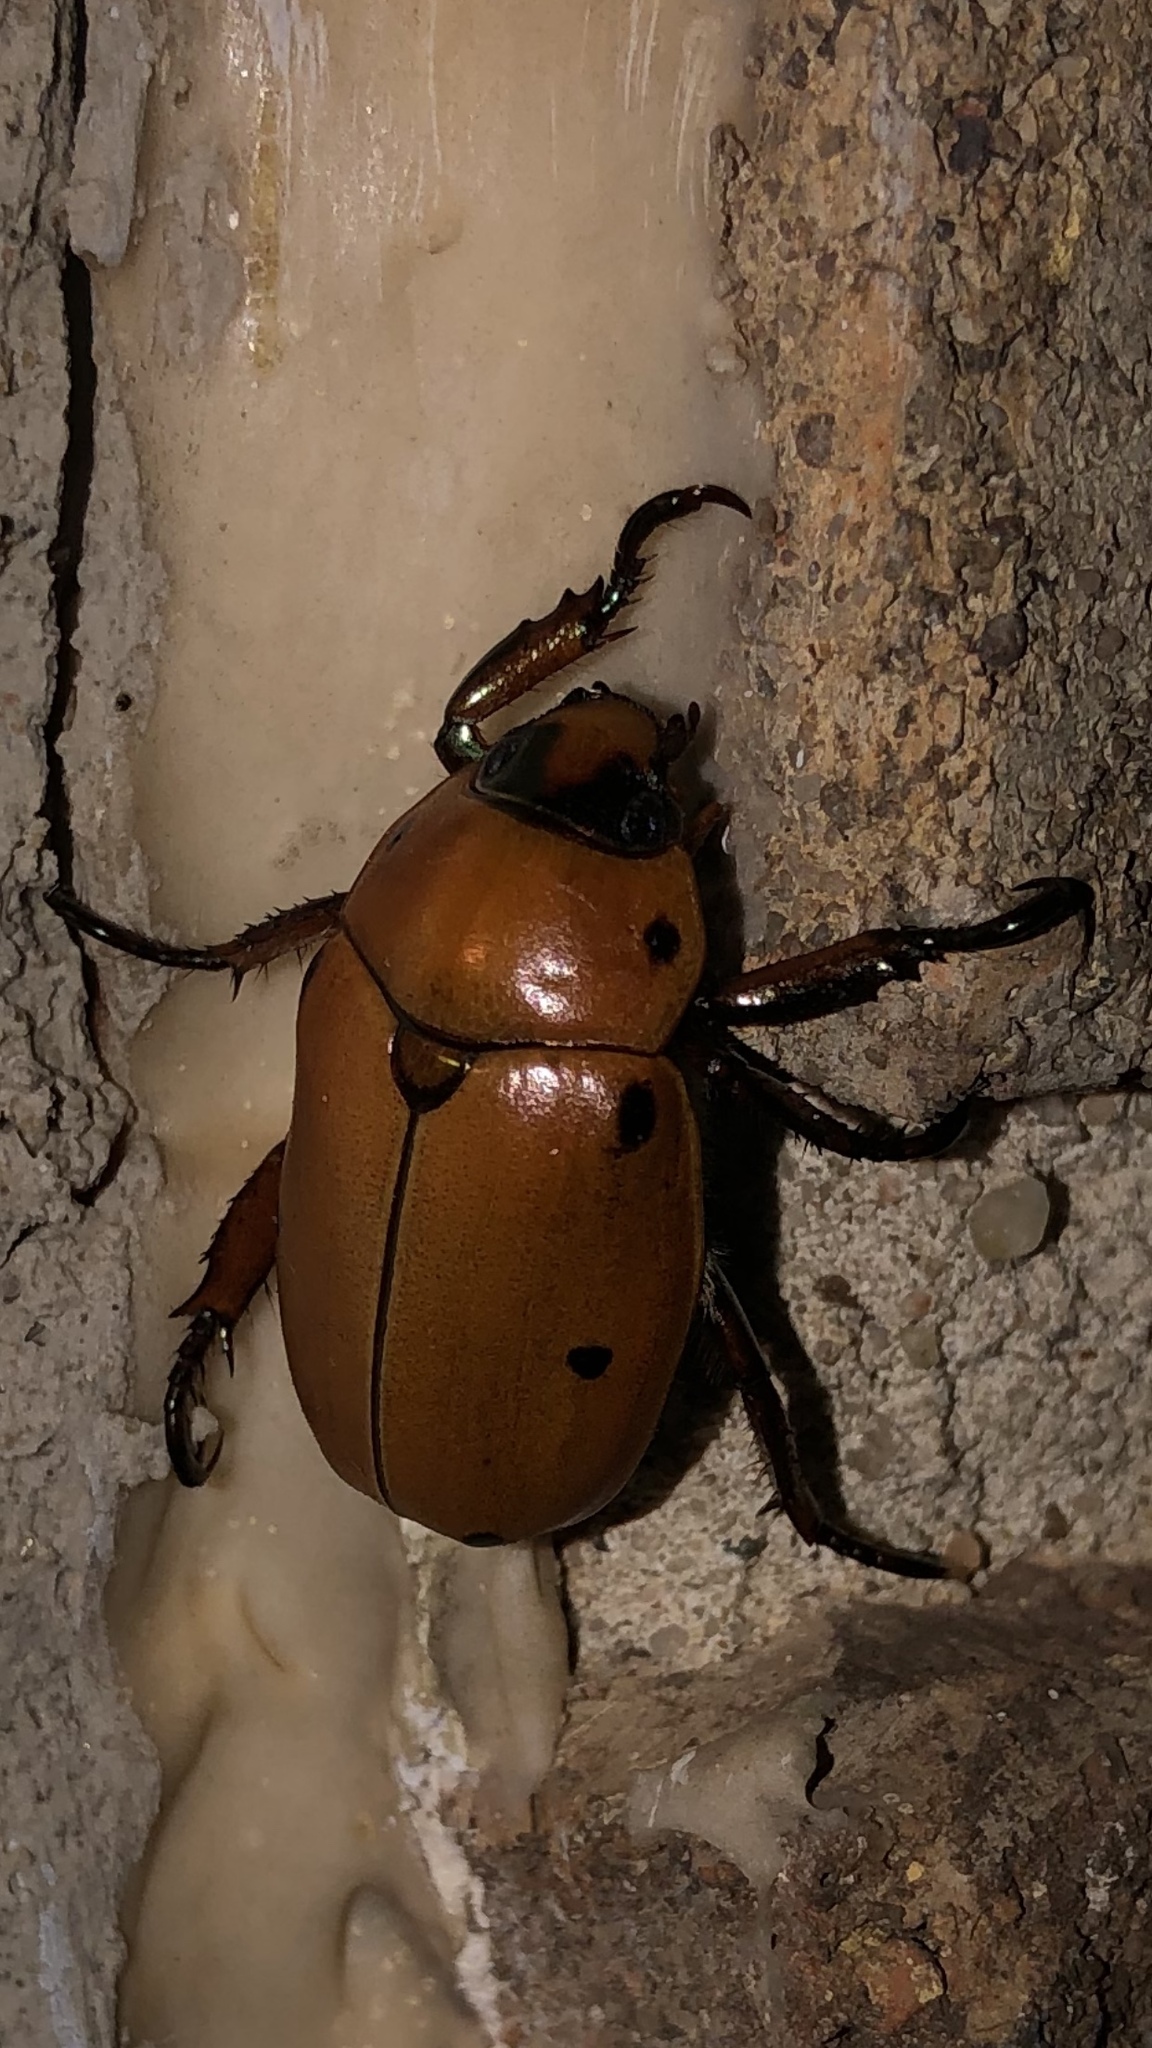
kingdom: Animalia
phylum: Arthropoda
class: Insecta
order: Coleoptera
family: Scarabaeidae
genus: Pelidnota
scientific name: Pelidnota punctata
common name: Grapevine beetle
